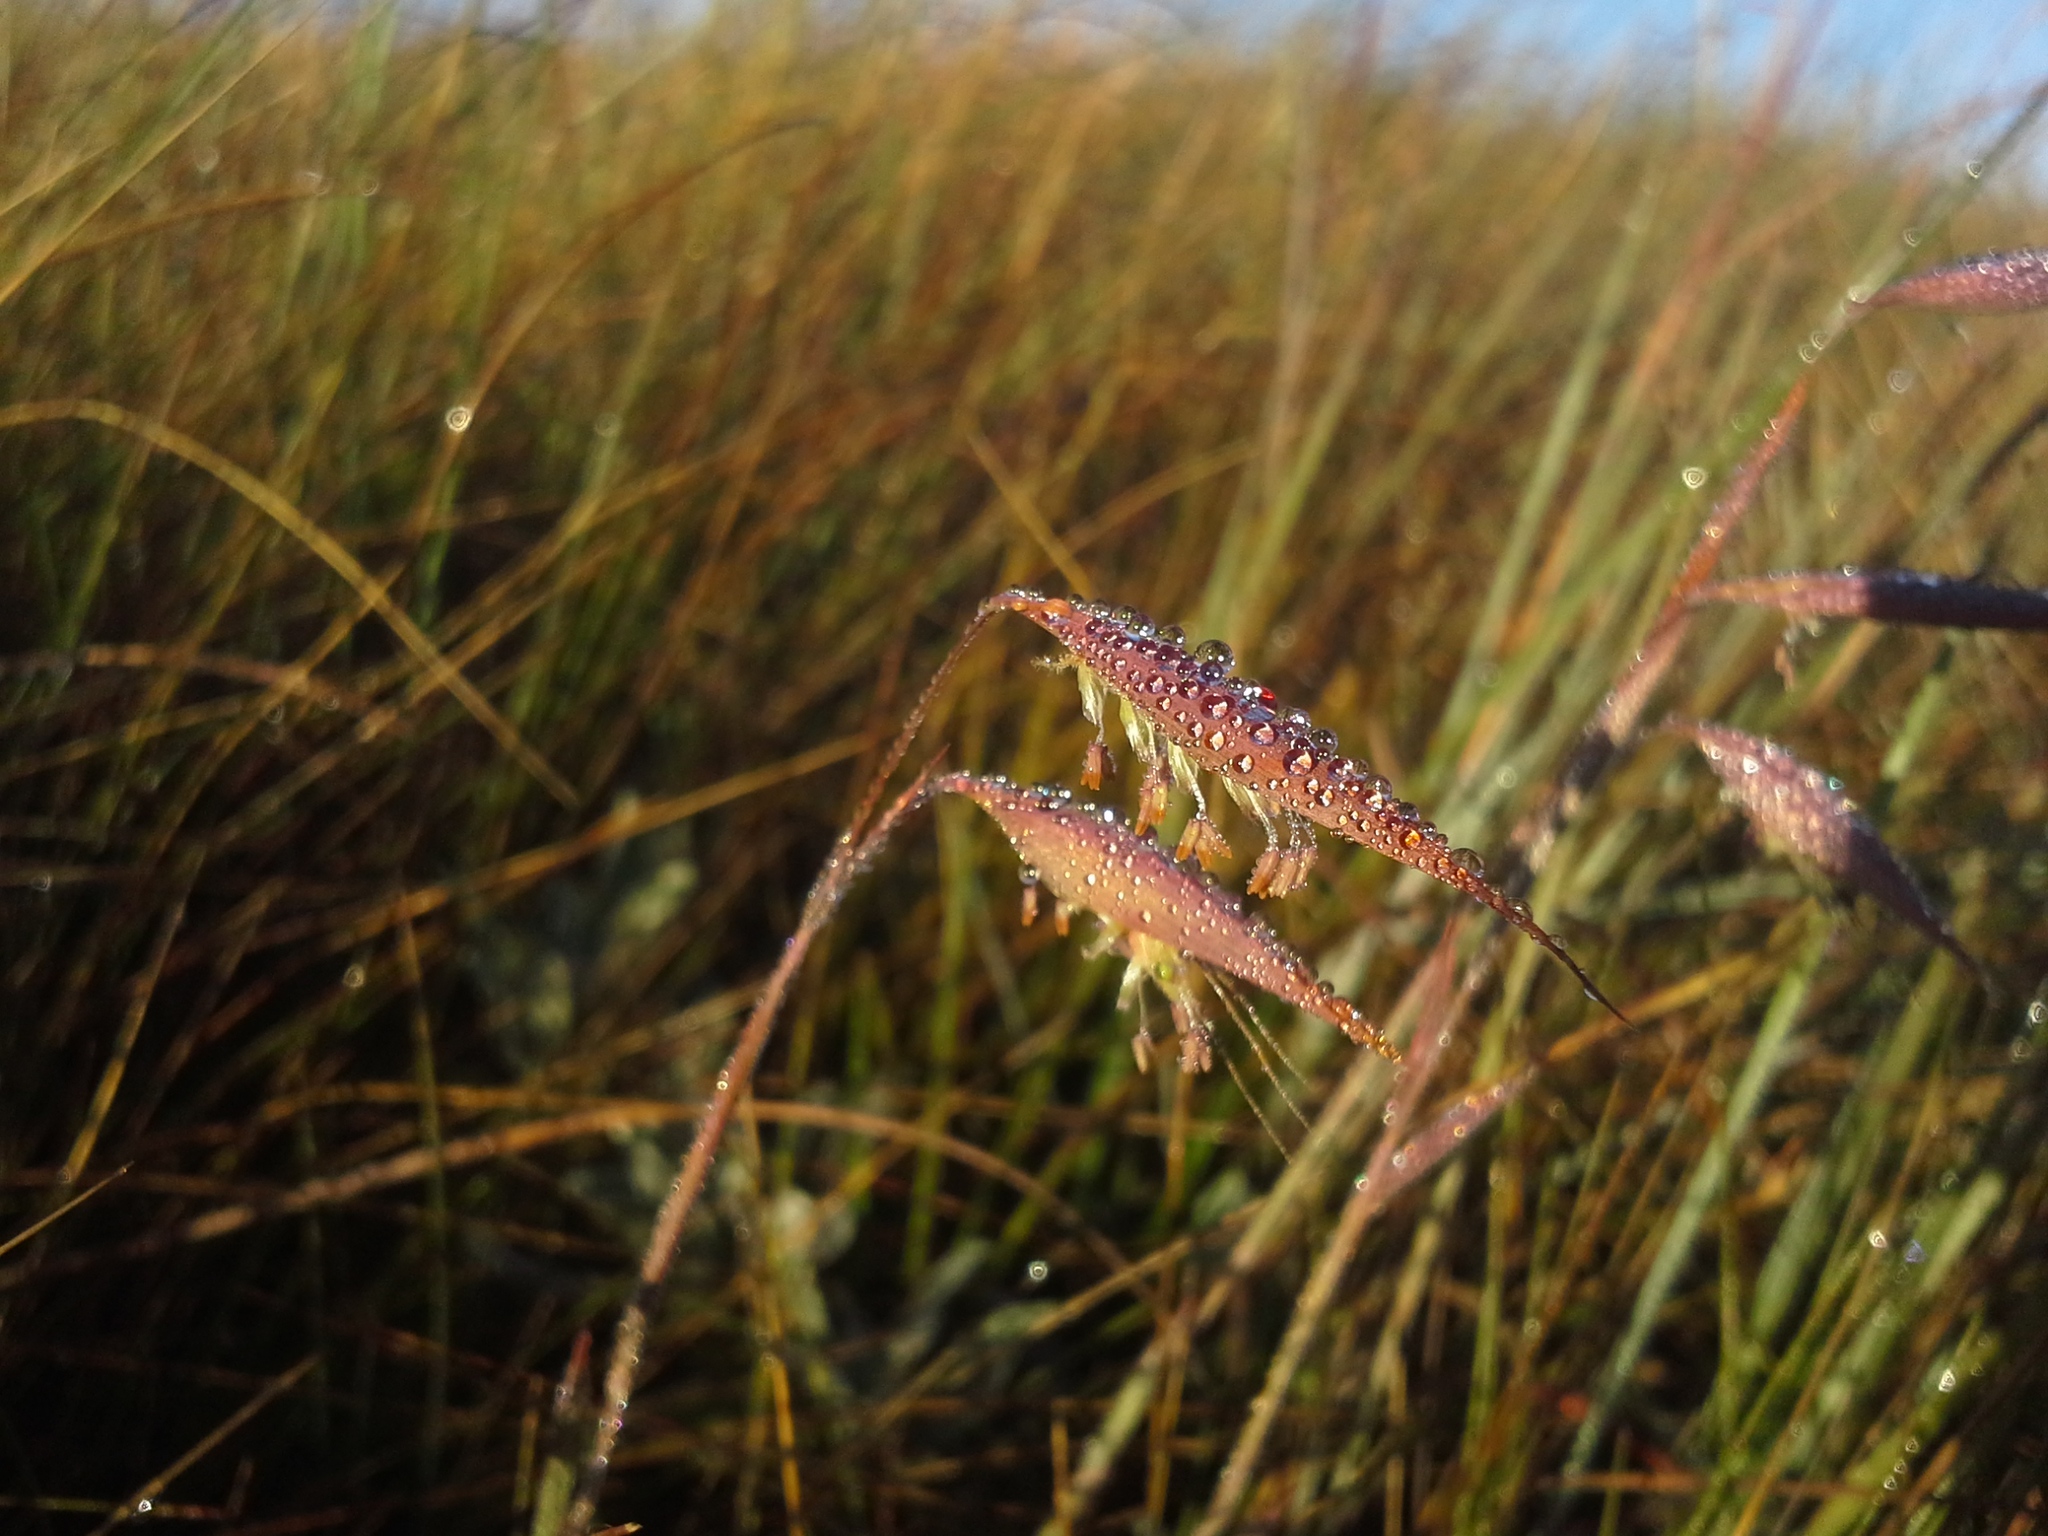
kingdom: Plantae
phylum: Tracheophyta
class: Liliopsida
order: Poales
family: Poaceae
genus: Monocymbium
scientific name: Monocymbium ceresiiforme
